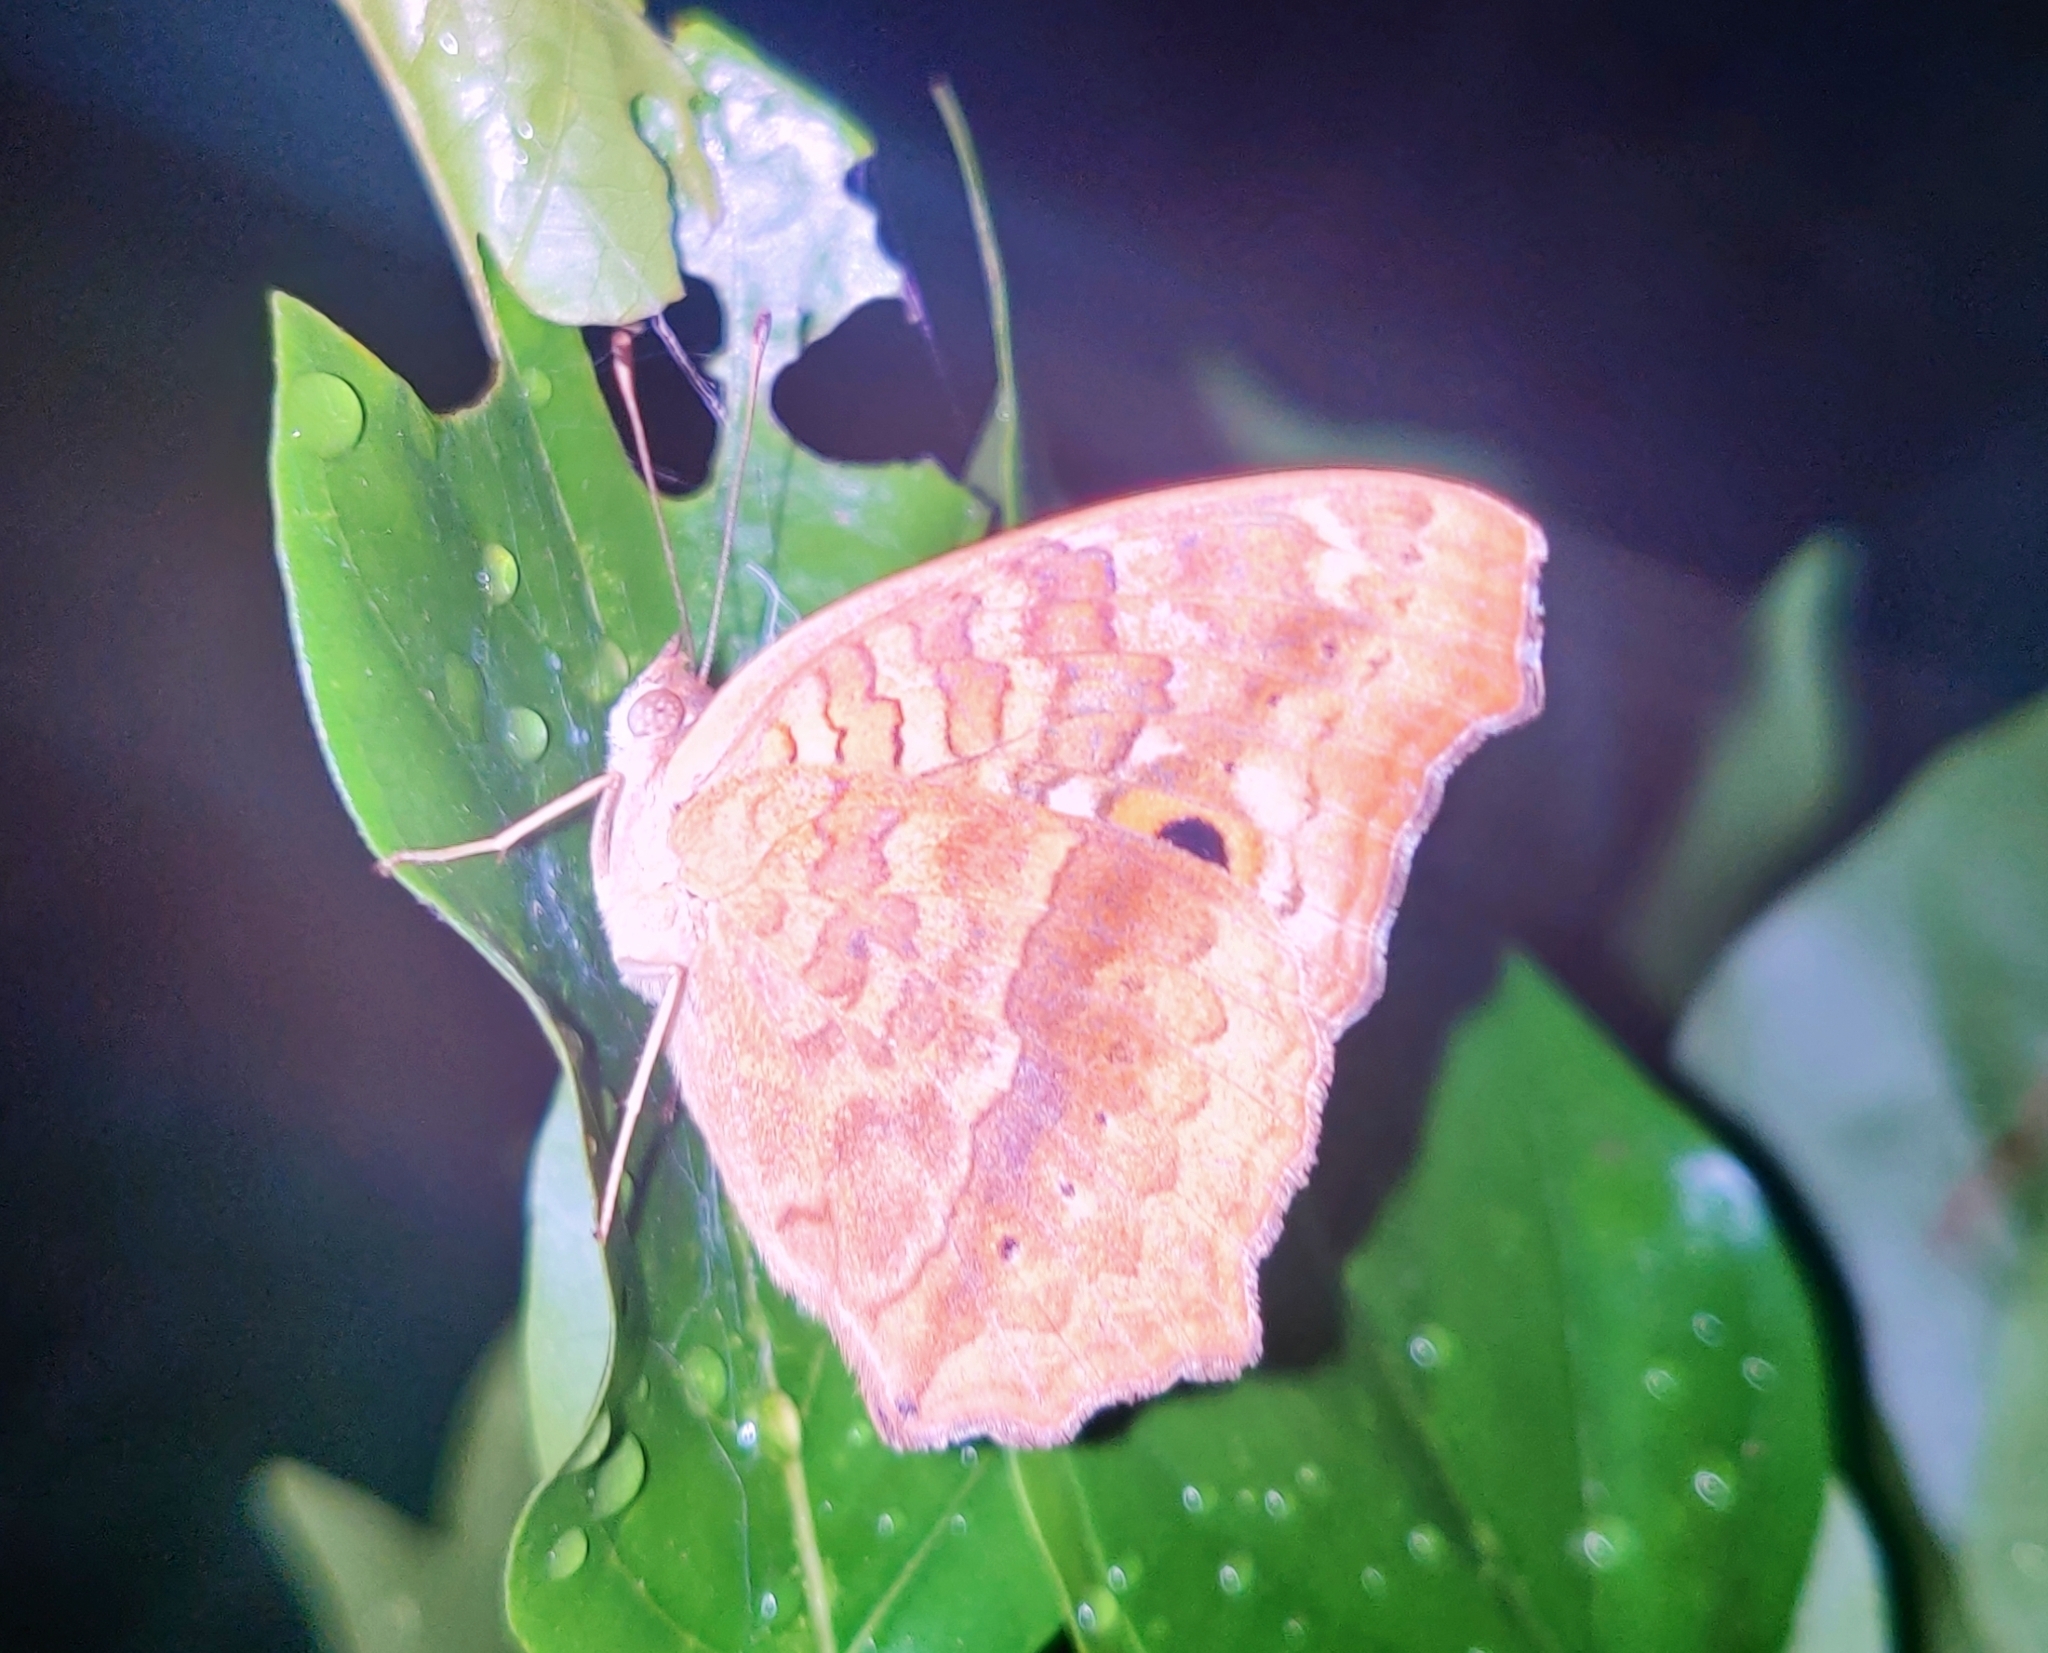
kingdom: Animalia
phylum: Arthropoda
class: Insecta
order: Lepidoptera
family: Nymphalidae
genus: Junonia
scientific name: Junonia lemonias
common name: Lemon pansy
